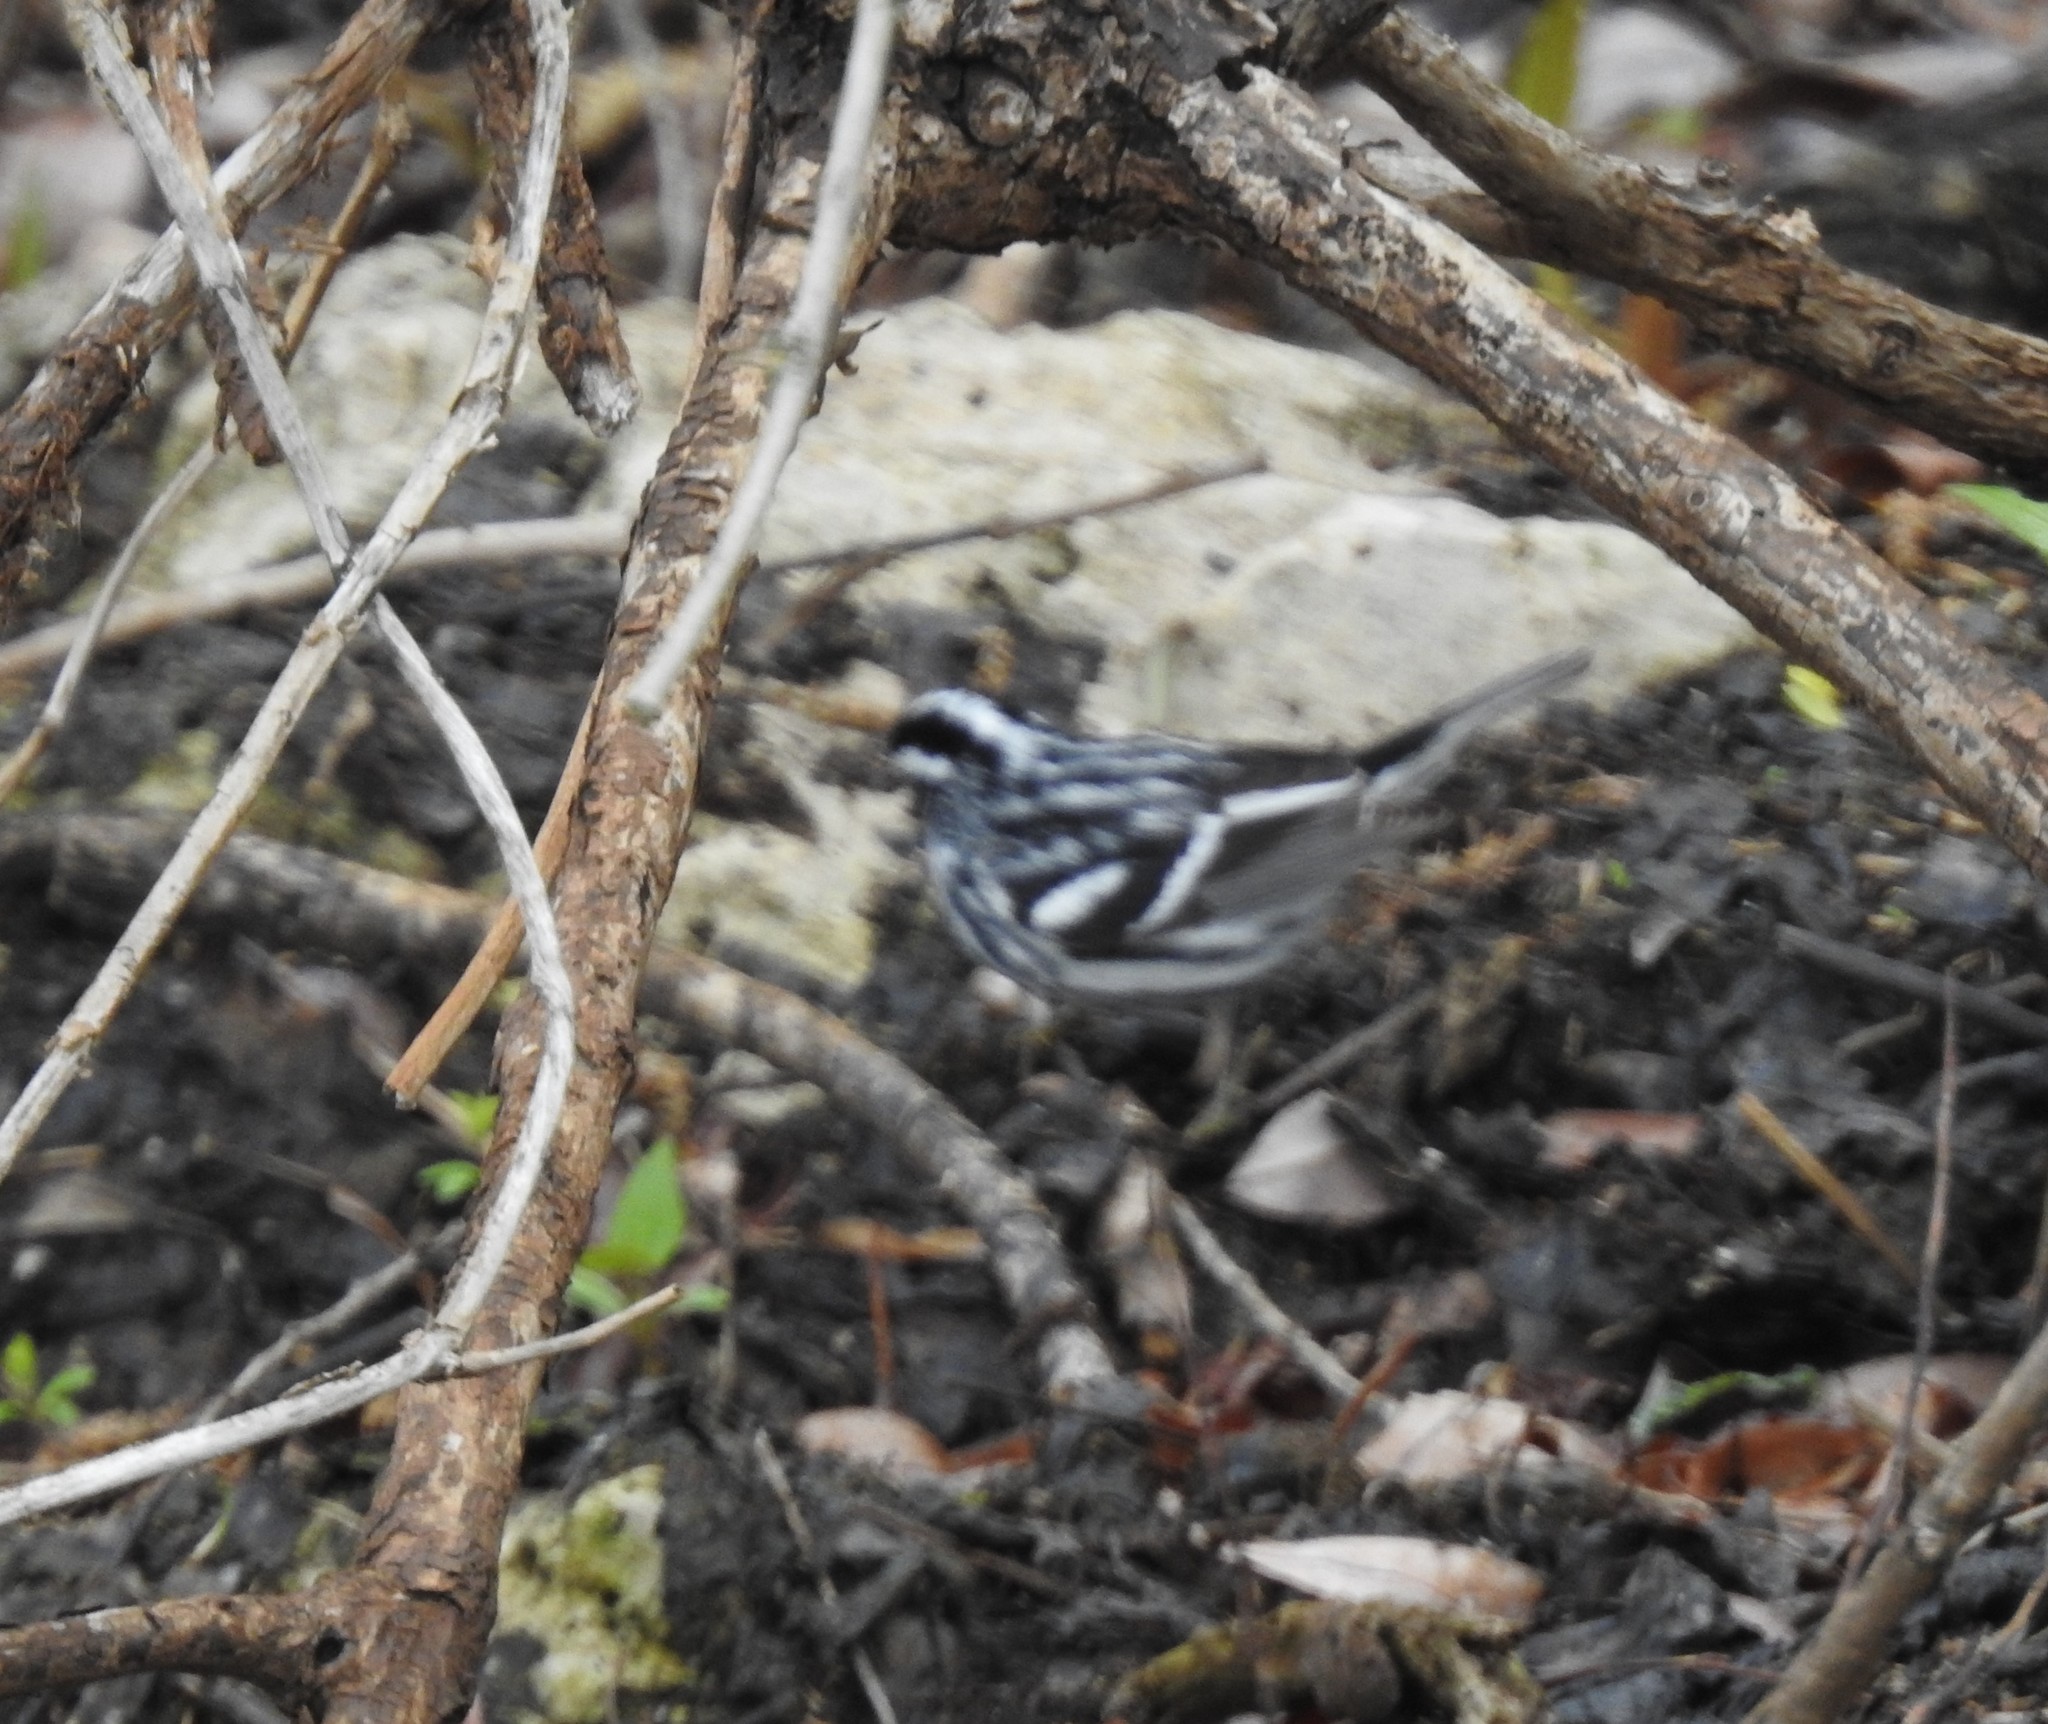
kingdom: Animalia
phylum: Chordata
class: Aves
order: Passeriformes
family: Parulidae
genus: Mniotilta
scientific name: Mniotilta varia
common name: Black-and-white warbler
